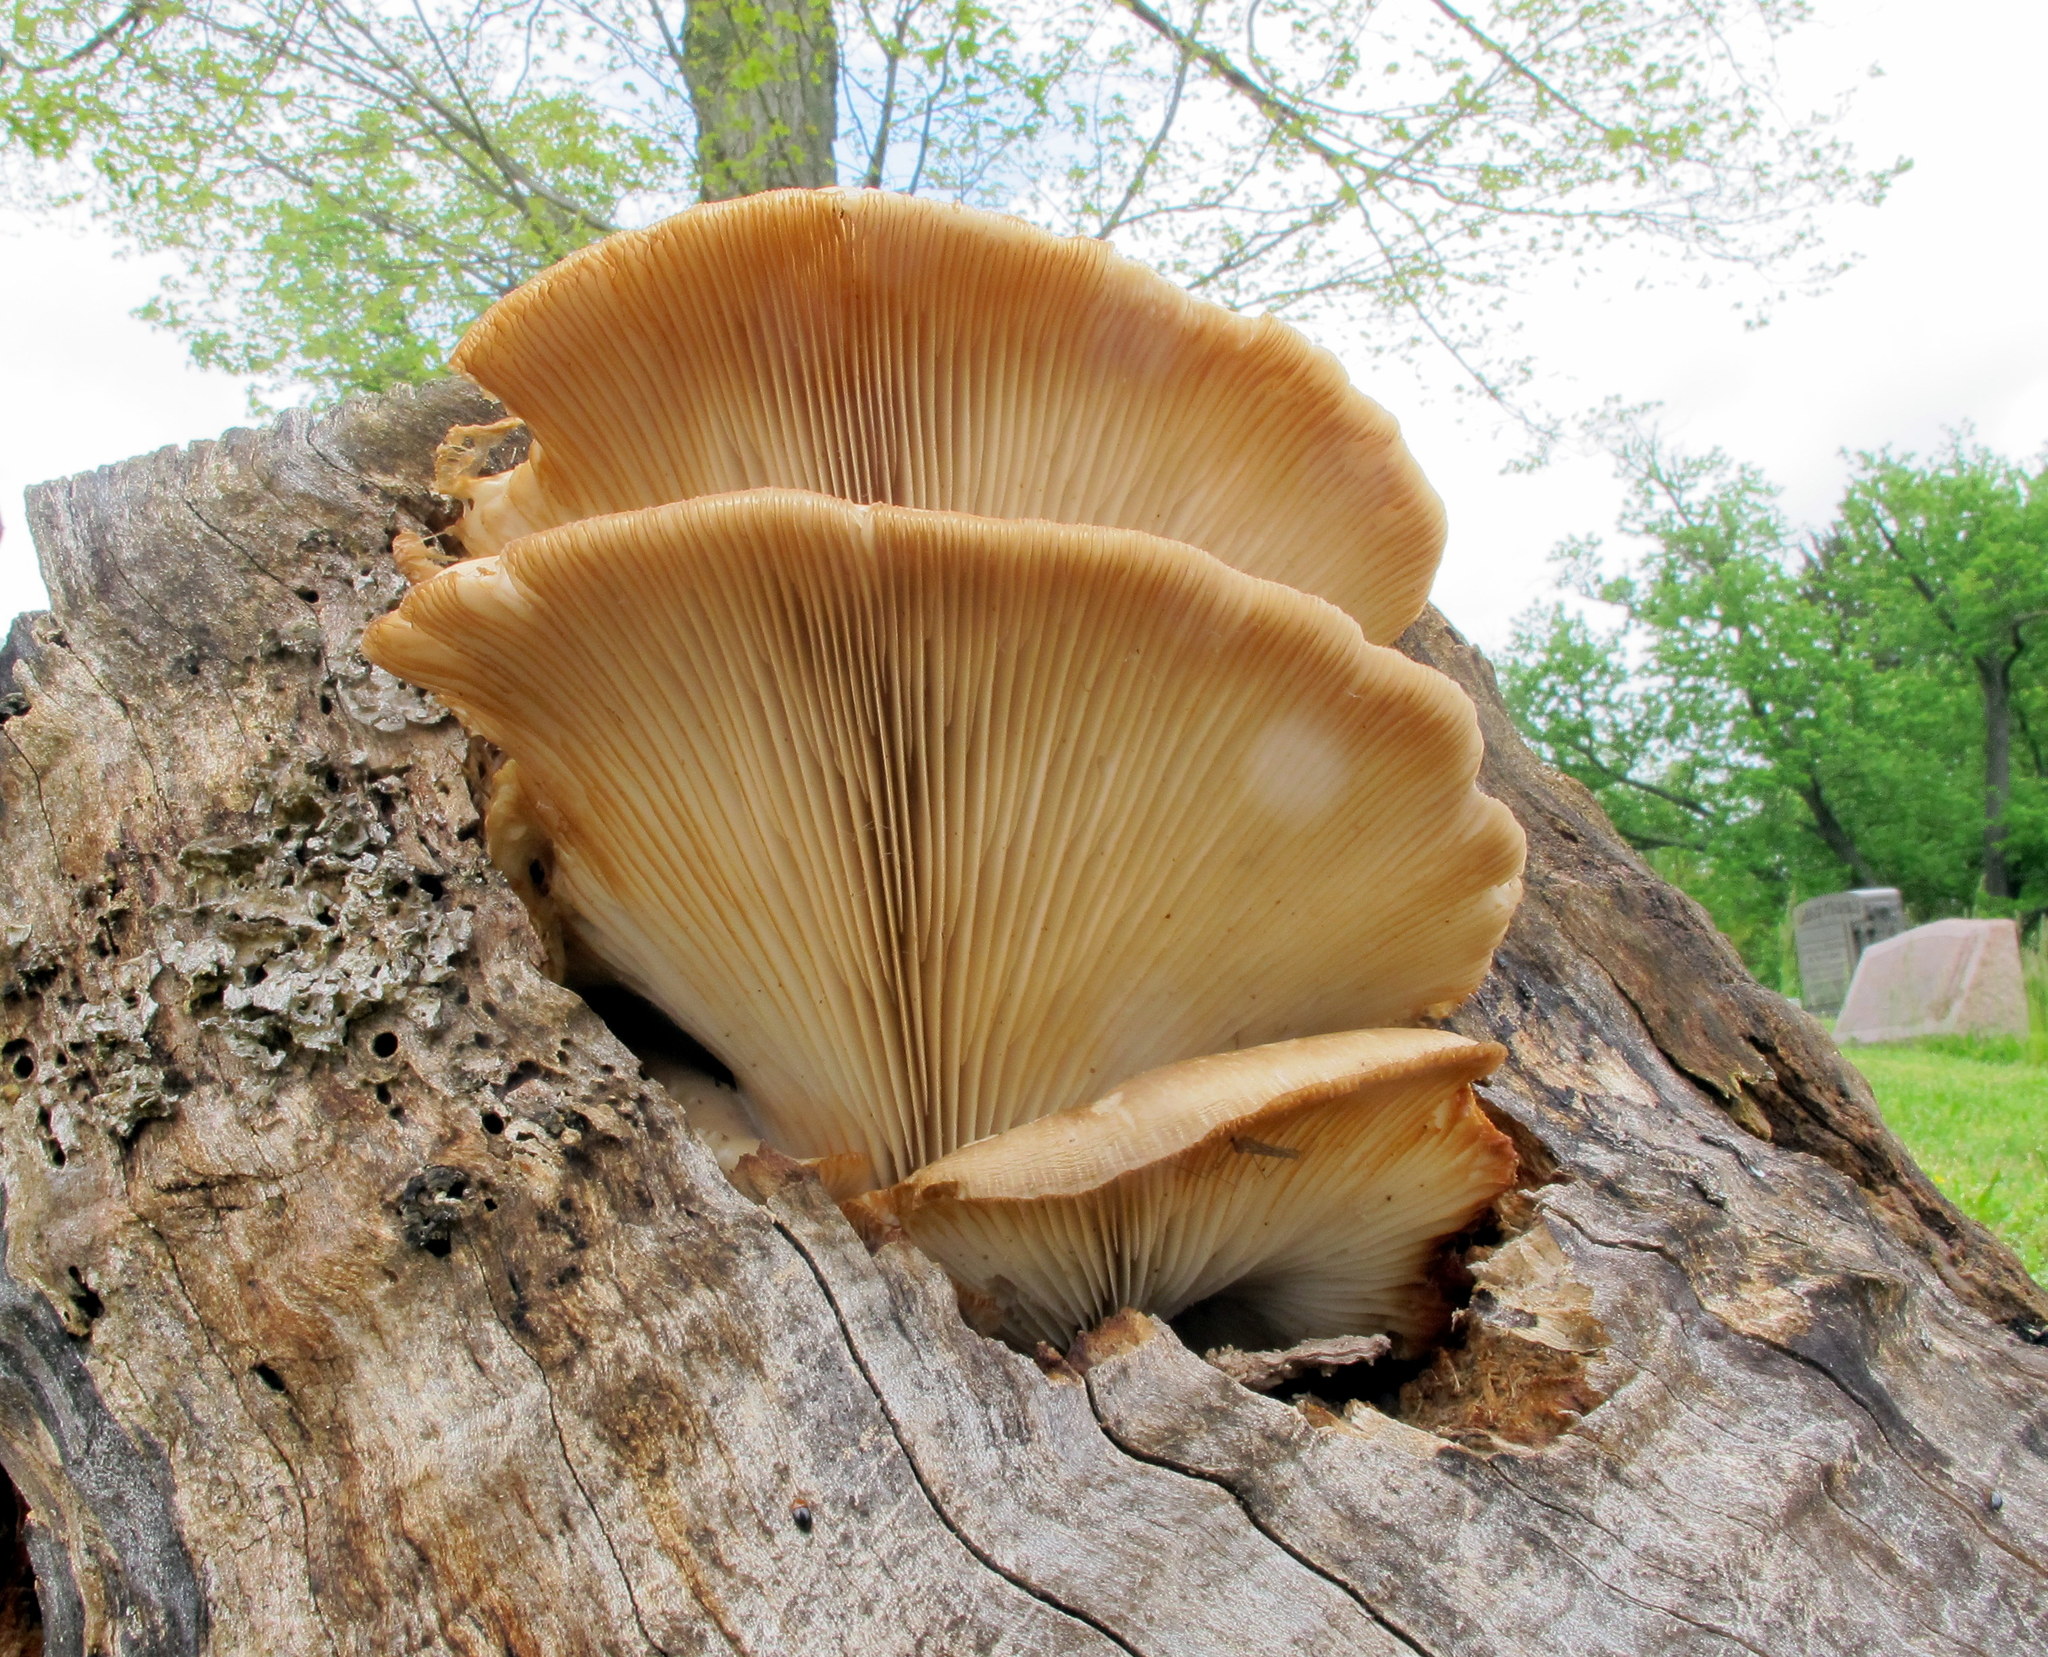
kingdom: Fungi
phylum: Basidiomycota
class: Agaricomycetes
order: Agaricales
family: Pleurotaceae
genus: Pleurotus
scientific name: Pleurotus ostreatus
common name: Oyster mushroom
